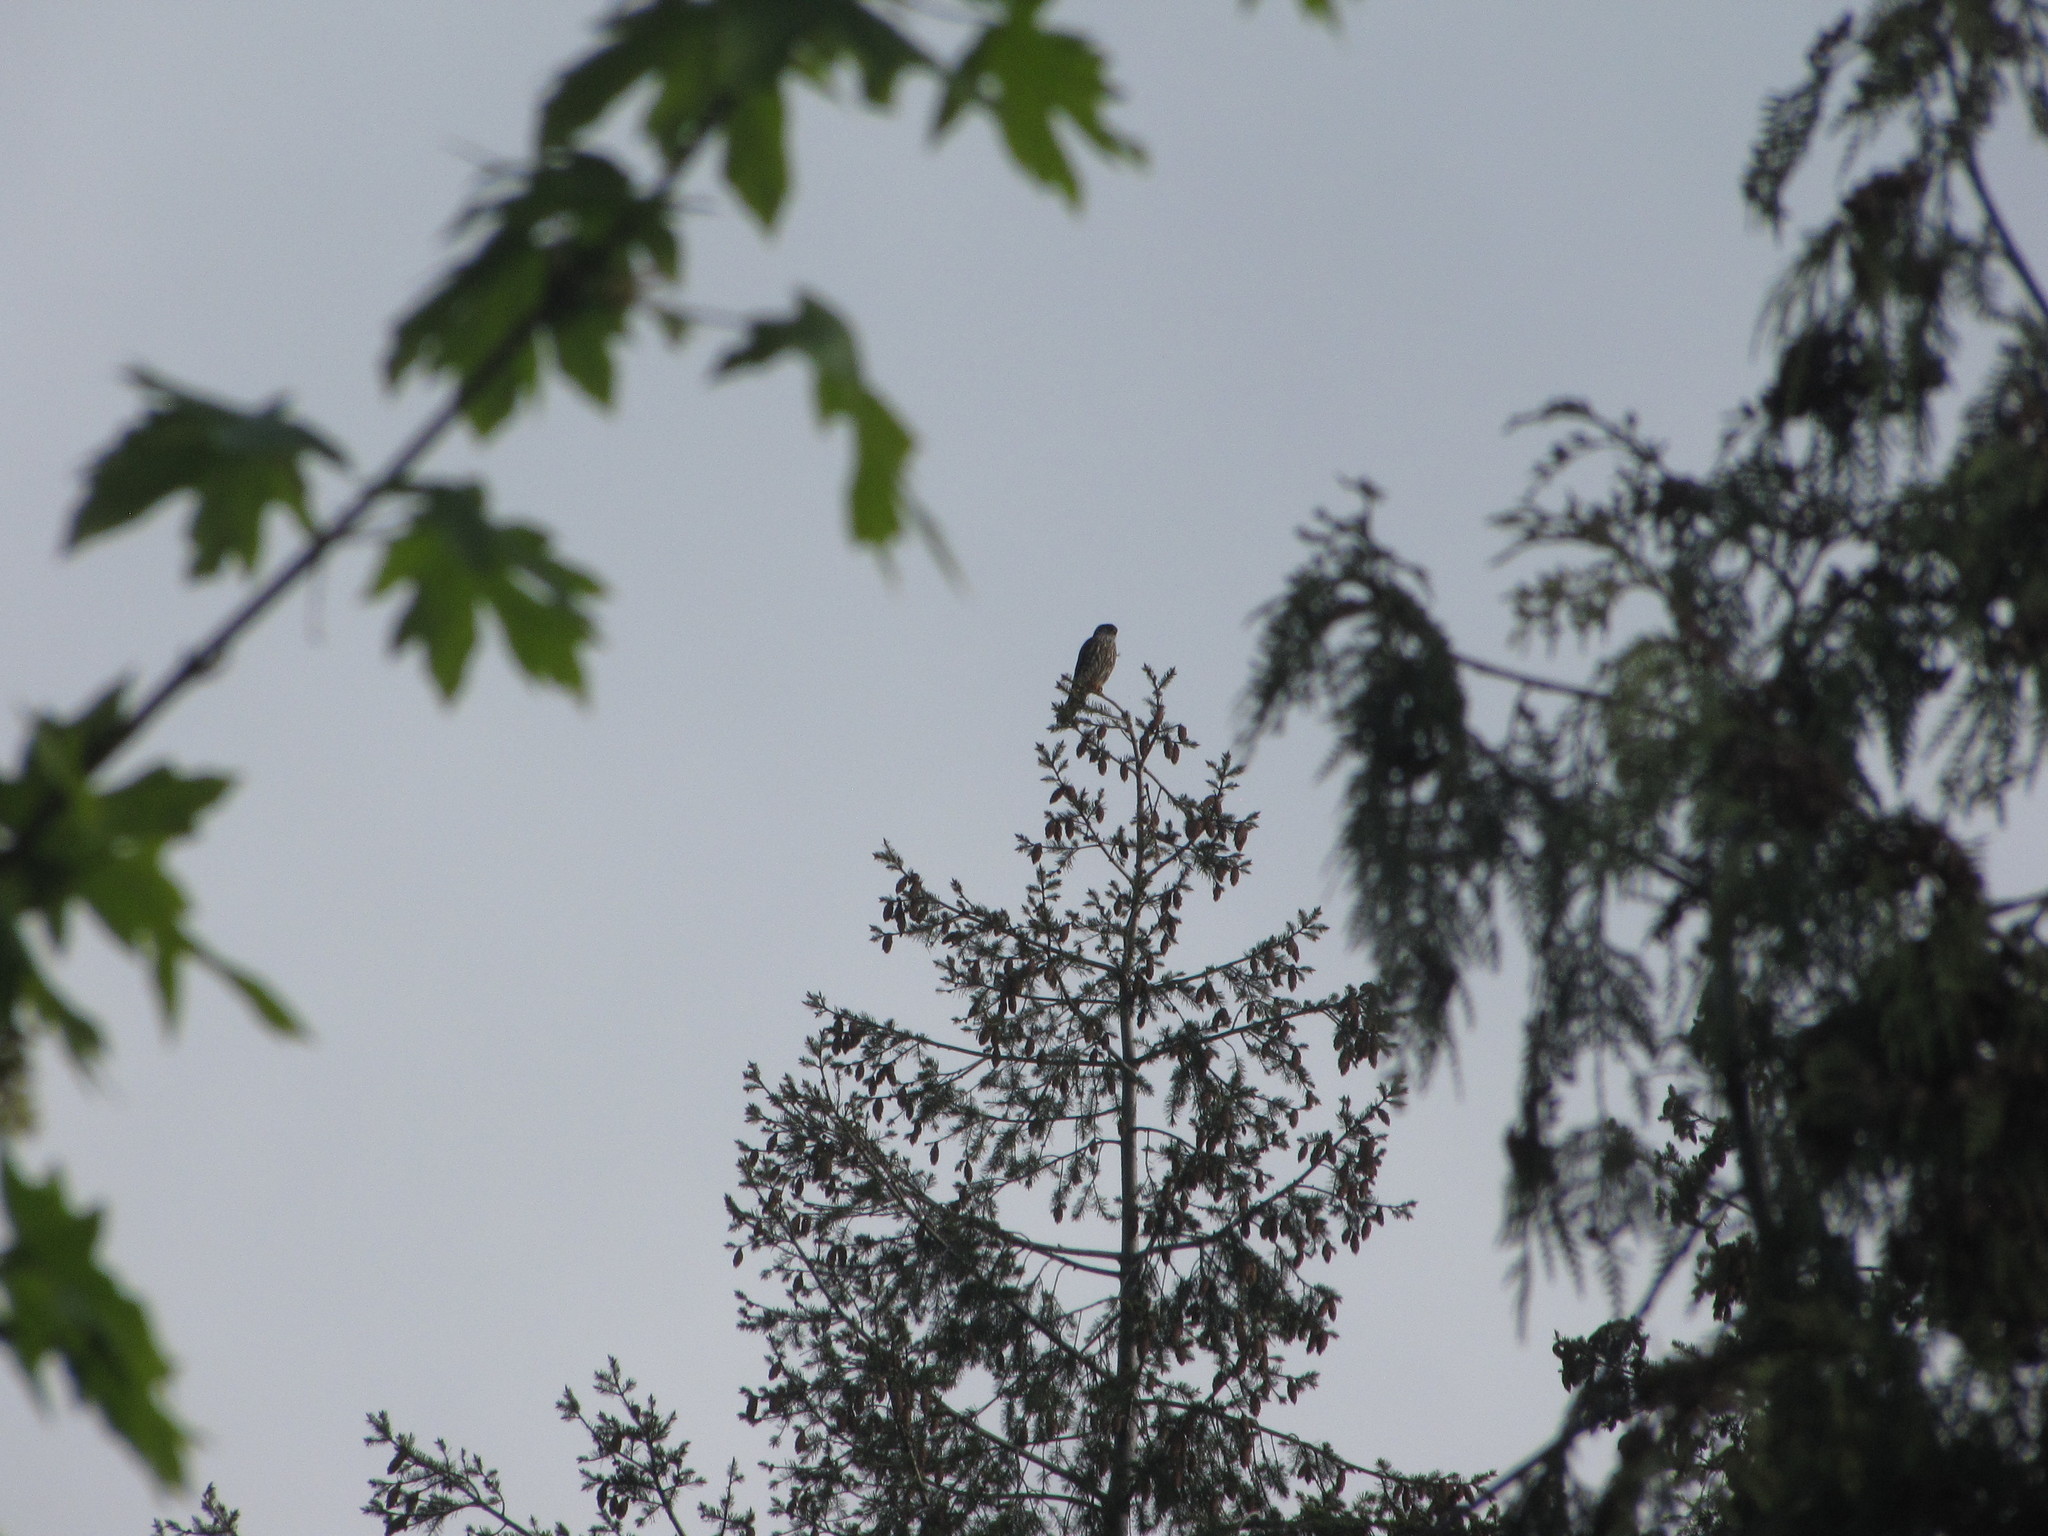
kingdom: Animalia
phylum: Chordata
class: Aves
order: Falconiformes
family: Falconidae
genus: Falco
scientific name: Falco columbarius
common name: Merlin
